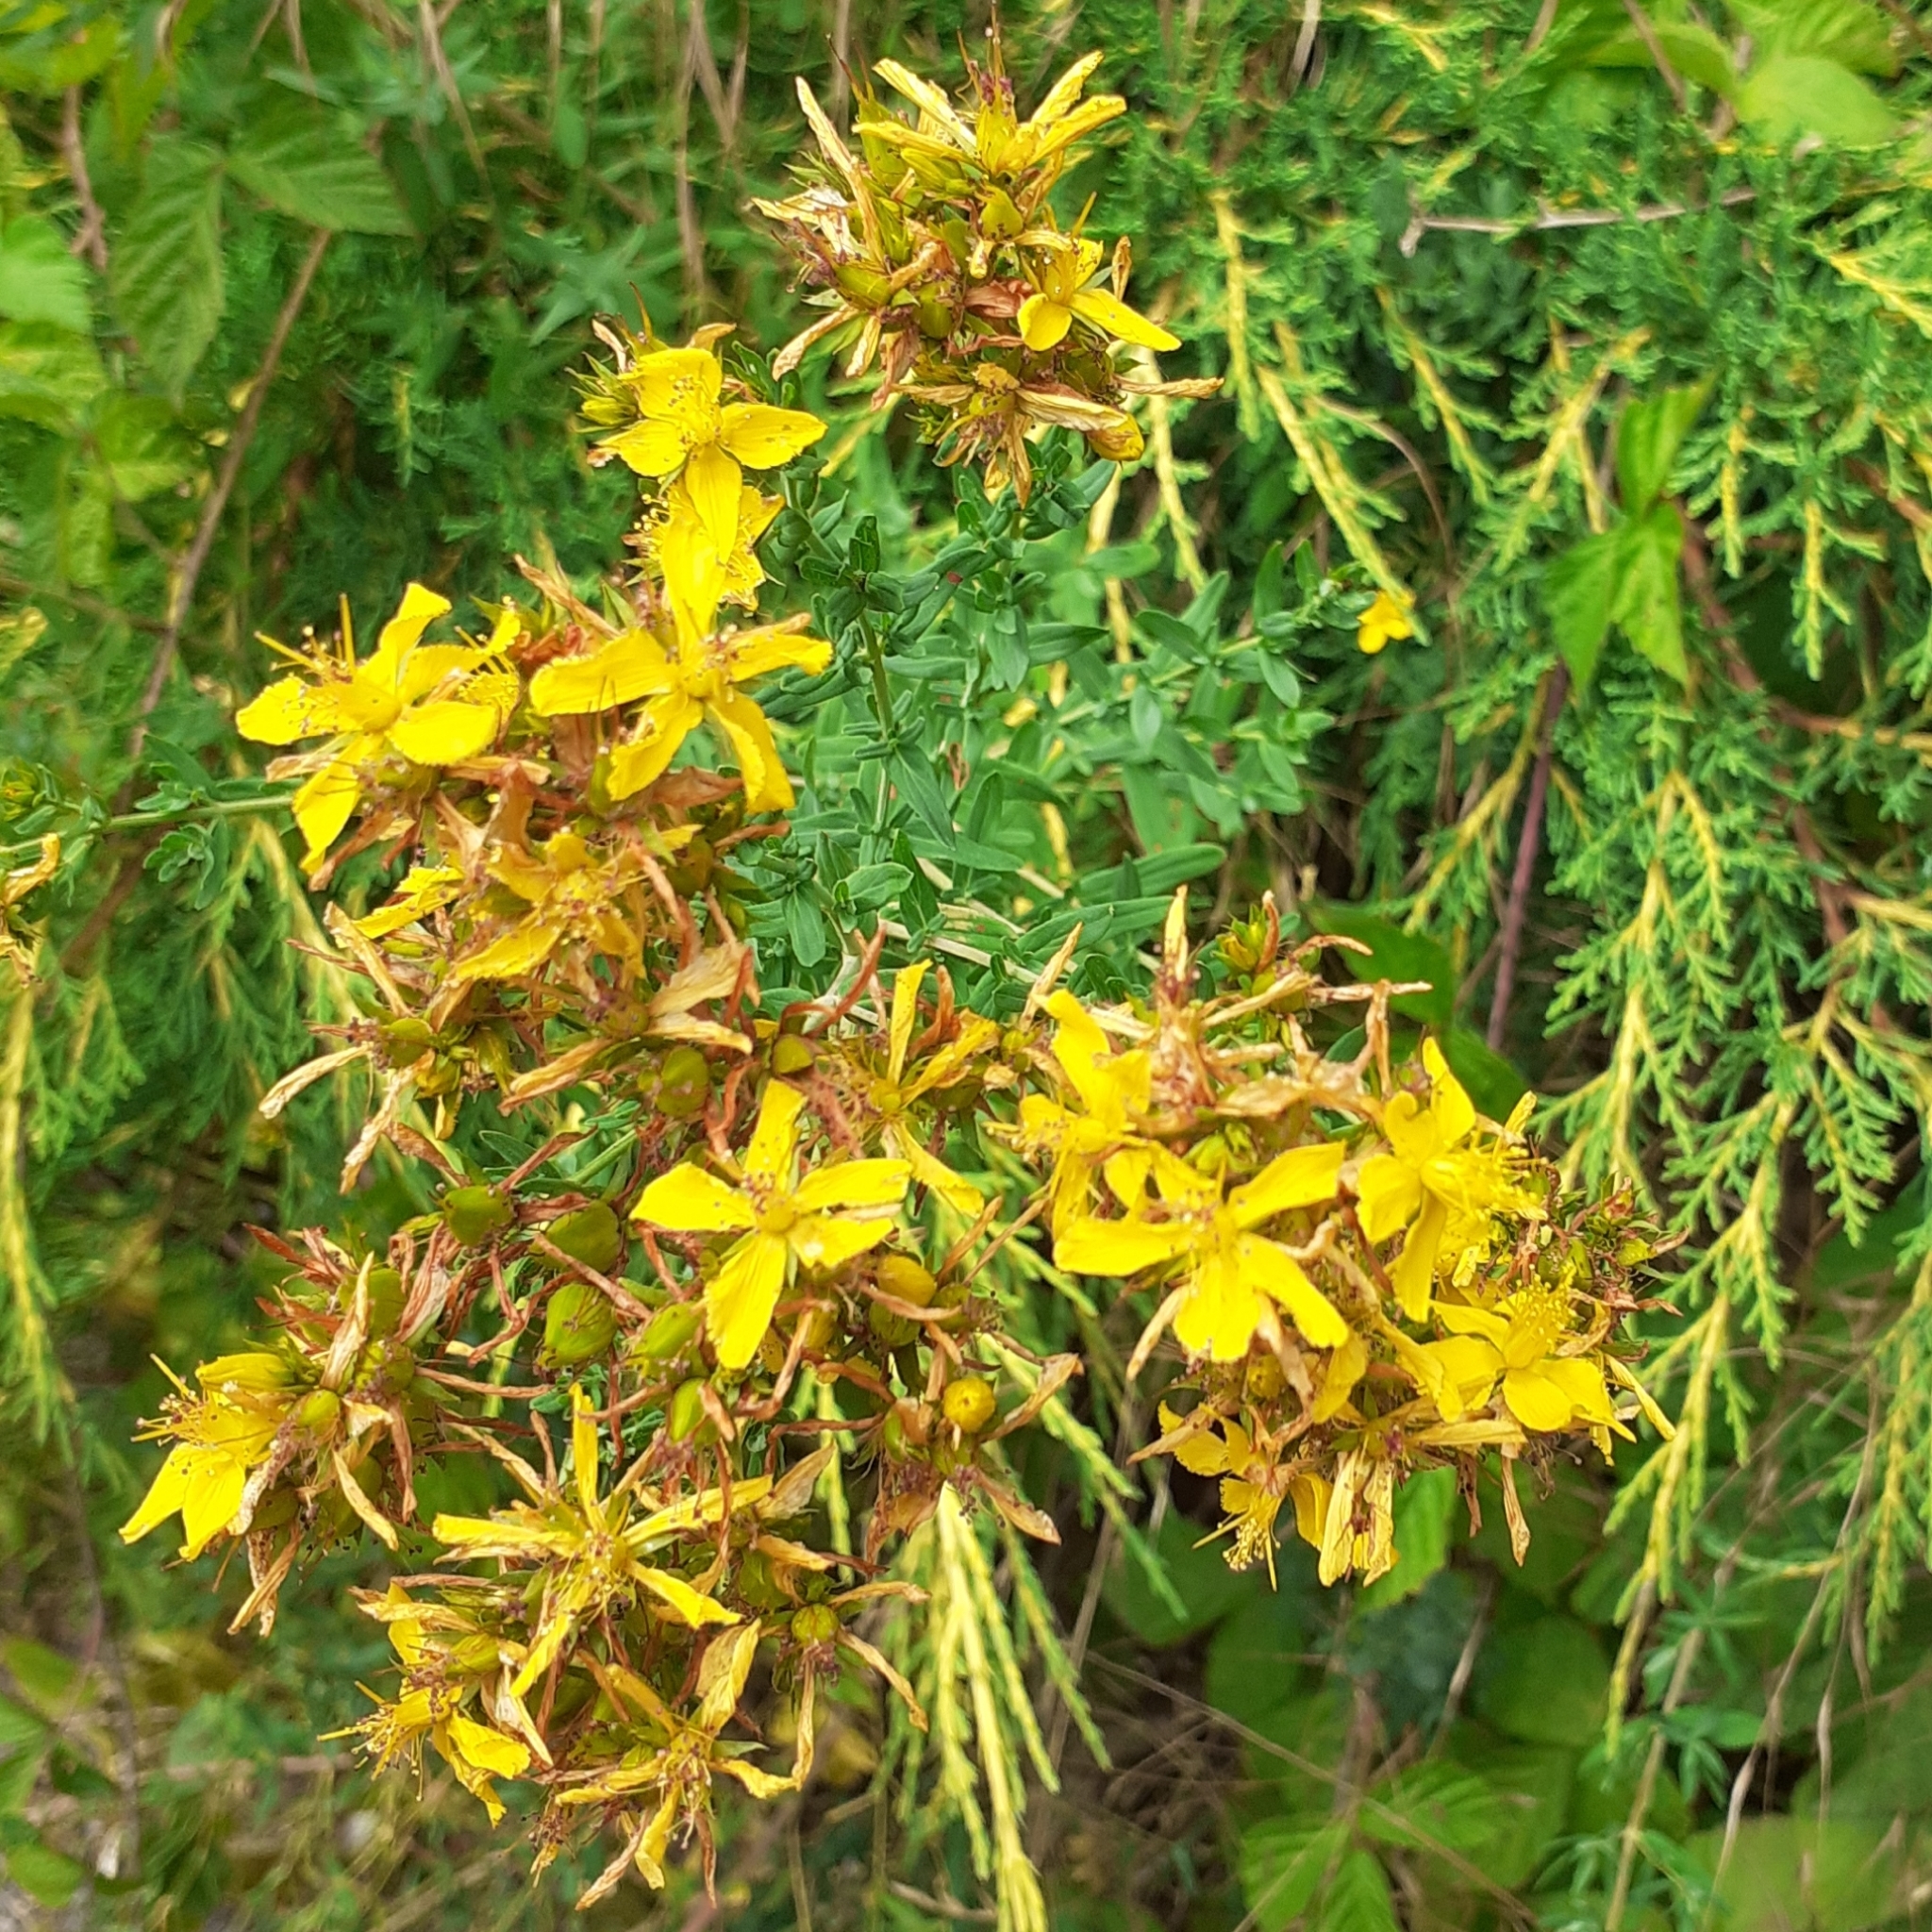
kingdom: Plantae
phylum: Tracheophyta
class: Magnoliopsida
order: Malpighiales
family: Hypericaceae
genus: Hypericum
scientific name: Hypericum perforatum
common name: Common st. johnswort
